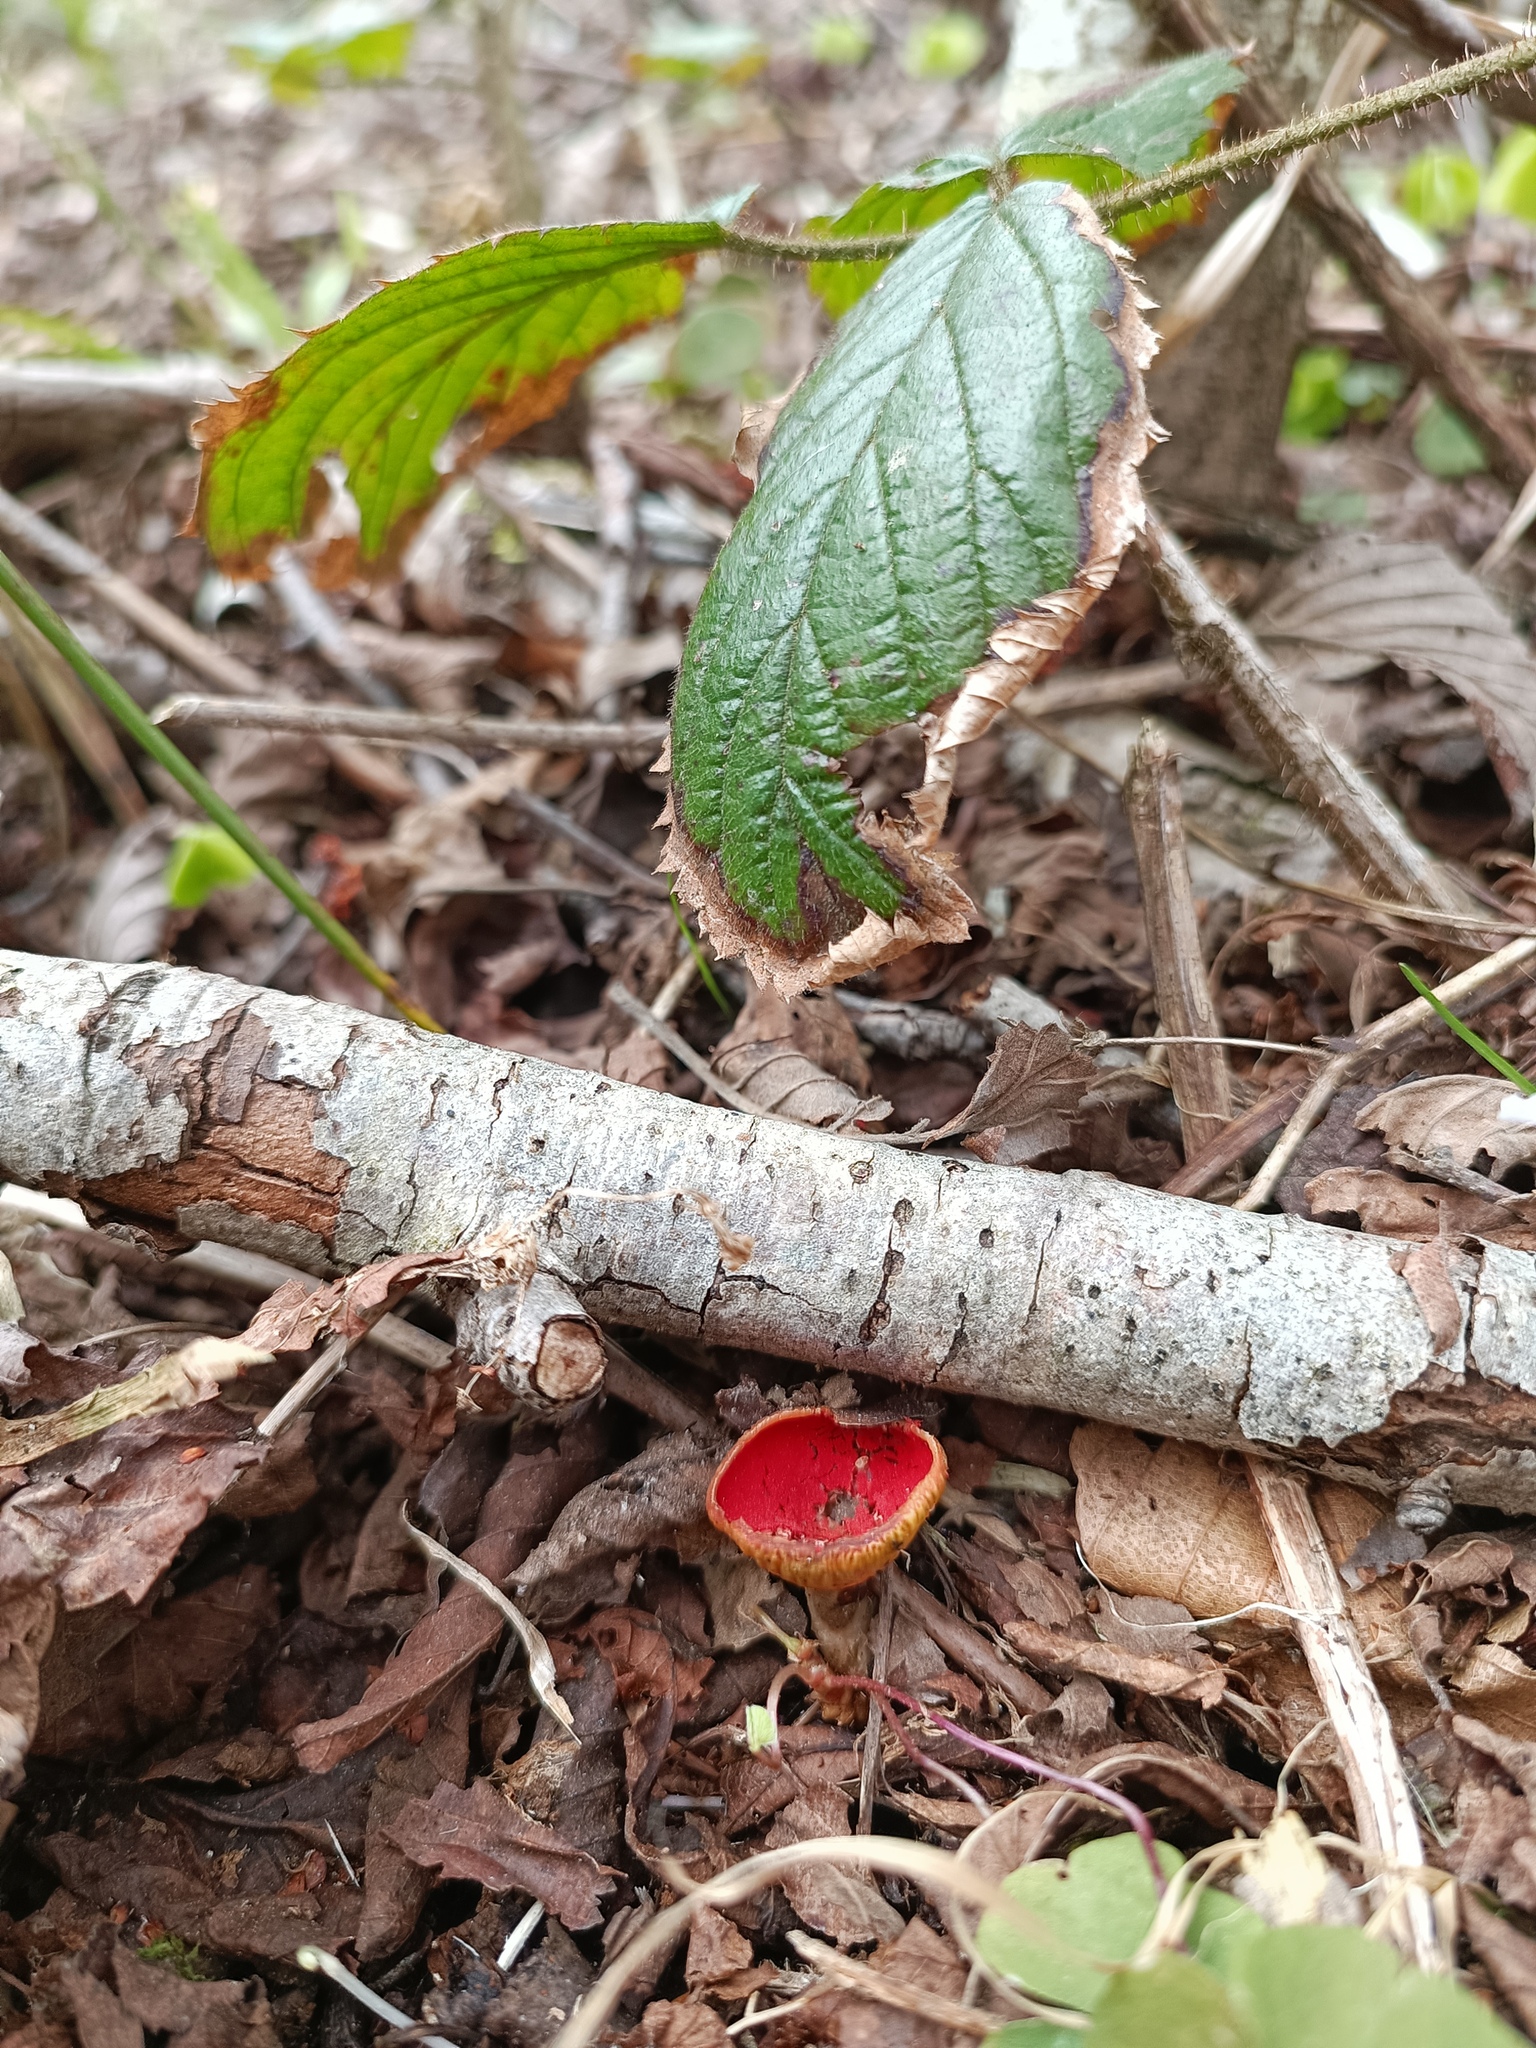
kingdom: Fungi
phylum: Ascomycota
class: Pezizomycetes
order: Pezizales
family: Sarcoscyphaceae
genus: Sarcoscypha
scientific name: Sarcoscypha
